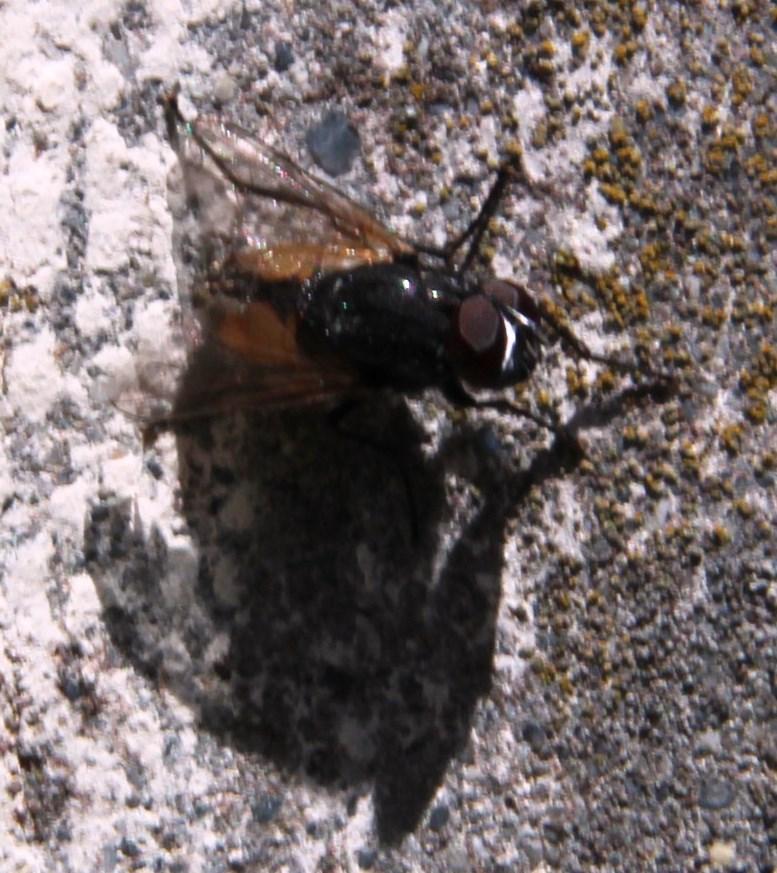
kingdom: Animalia
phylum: Arthropoda
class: Insecta
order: Diptera
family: Muscidae
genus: Musca
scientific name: Musca domestica
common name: House fly
